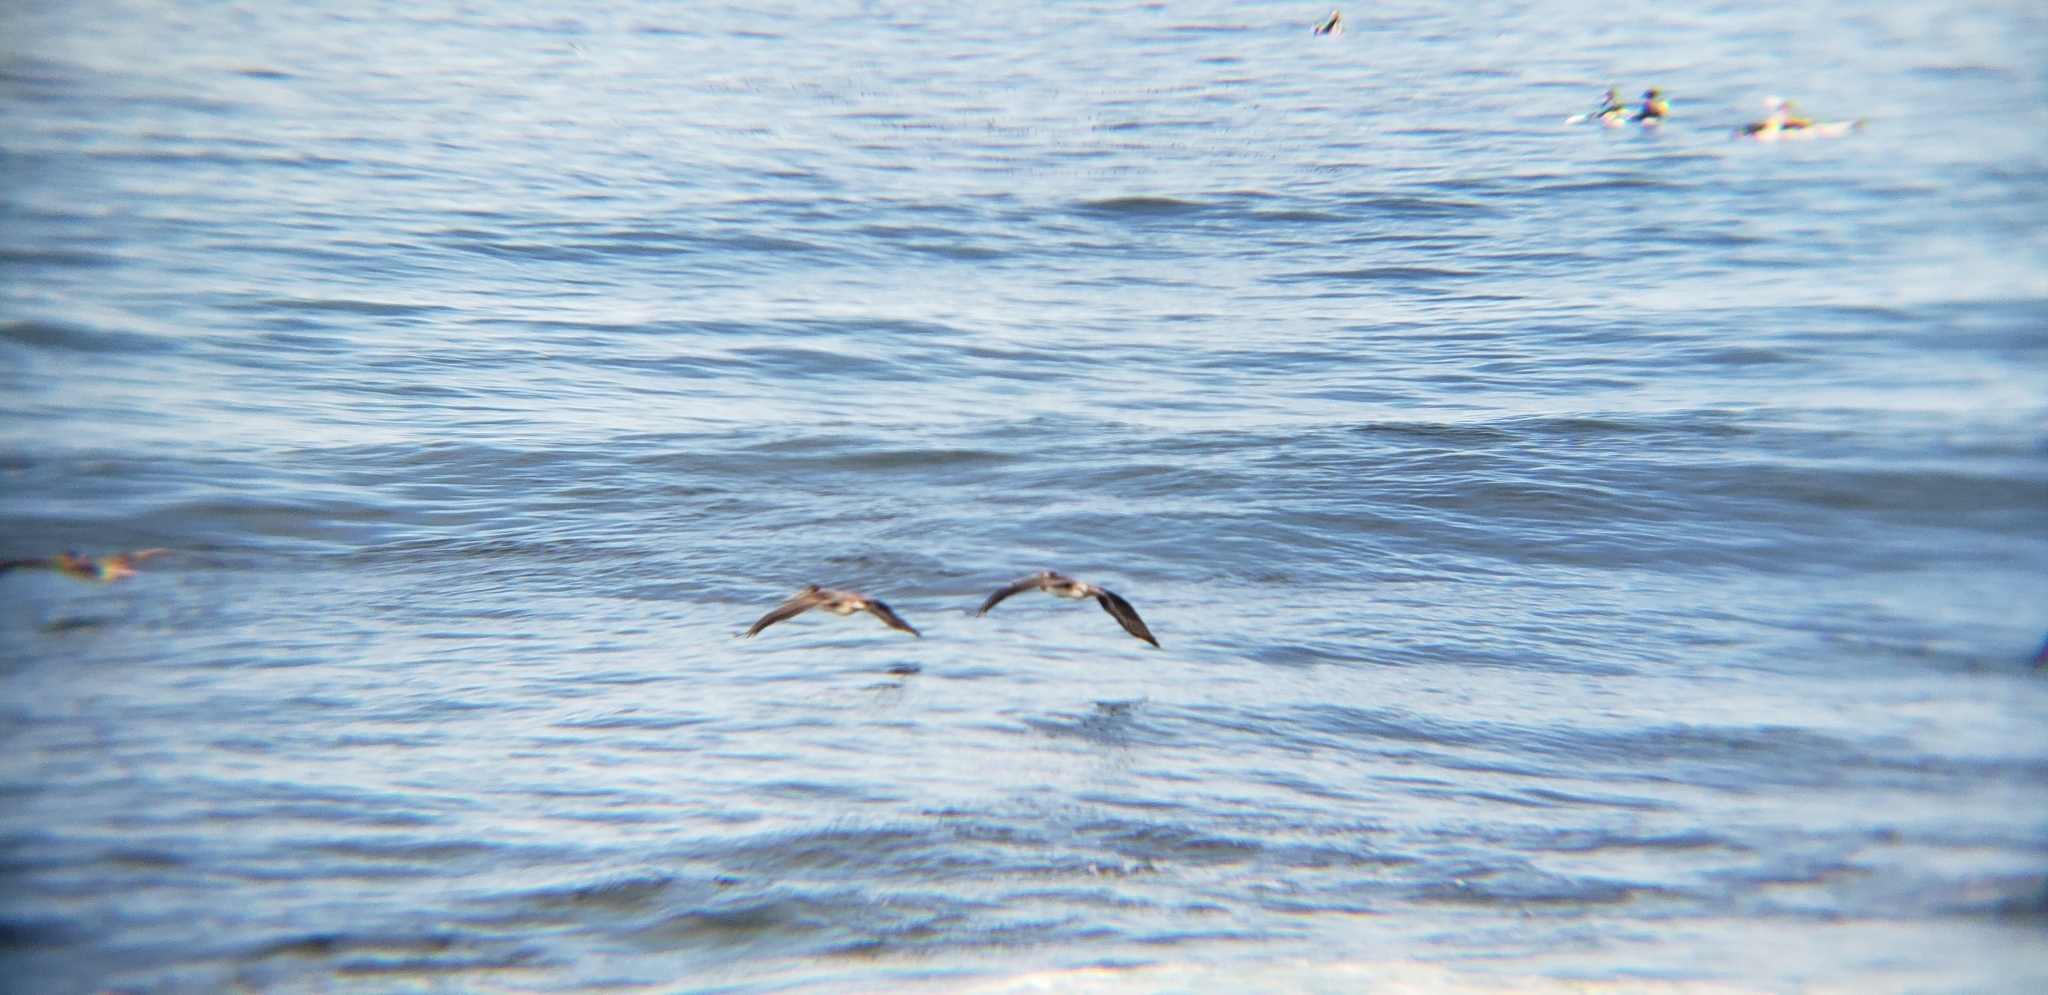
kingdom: Animalia
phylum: Chordata
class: Aves
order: Pelecaniformes
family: Pelecanidae
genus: Pelecanus
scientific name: Pelecanus occidentalis
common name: Brown pelican
